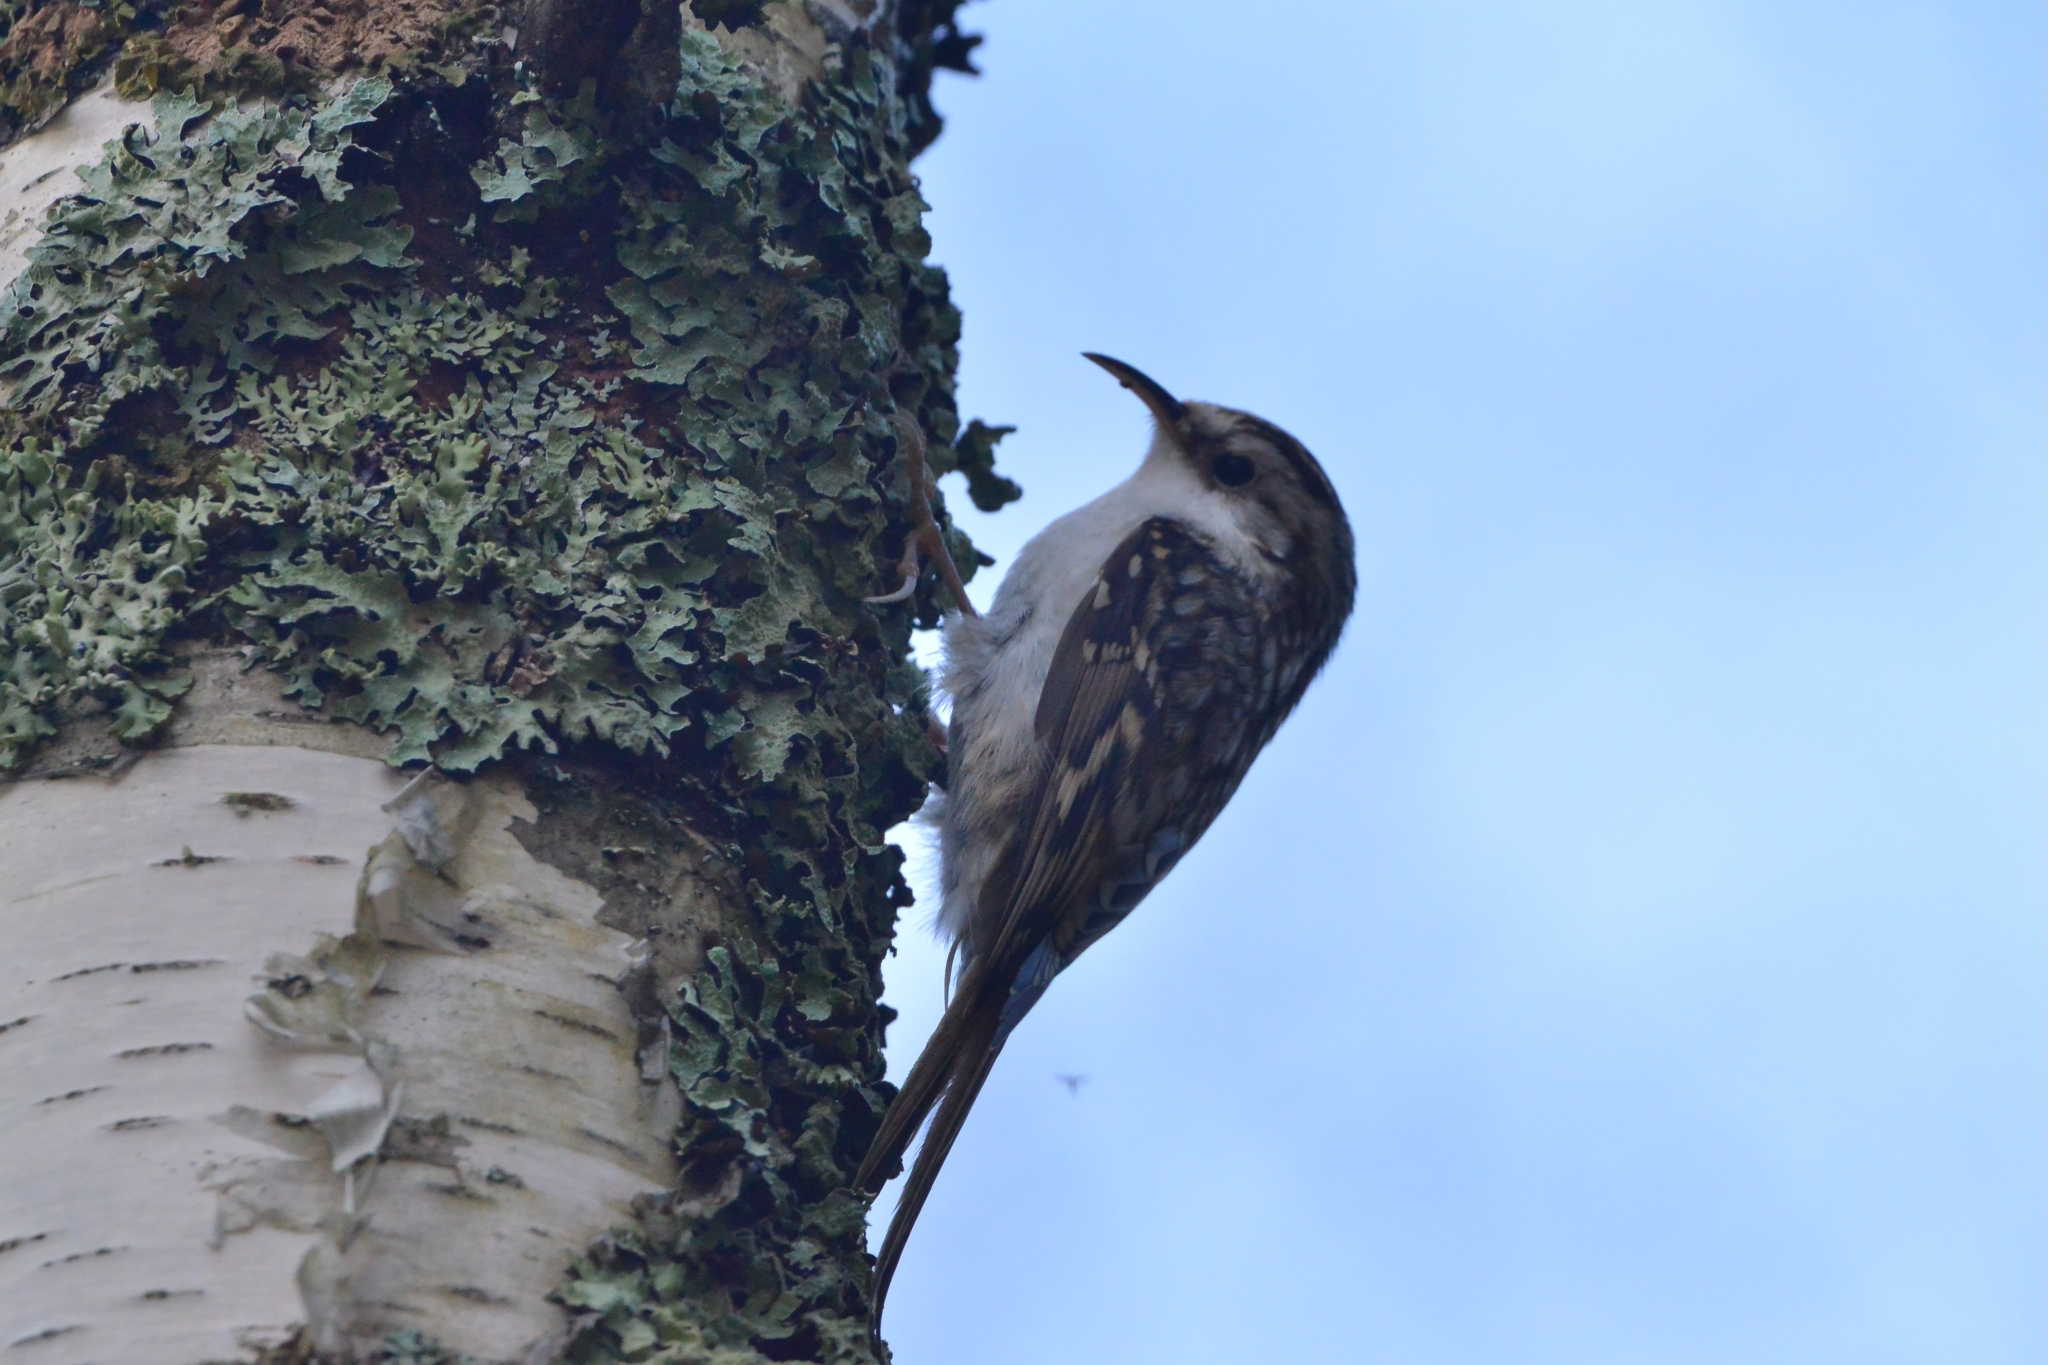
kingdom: Animalia
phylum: Chordata
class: Aves
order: Passeriformes
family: Certhiidae
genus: Certhia
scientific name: Certhia familiaris
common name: Eurasian treecreeper
